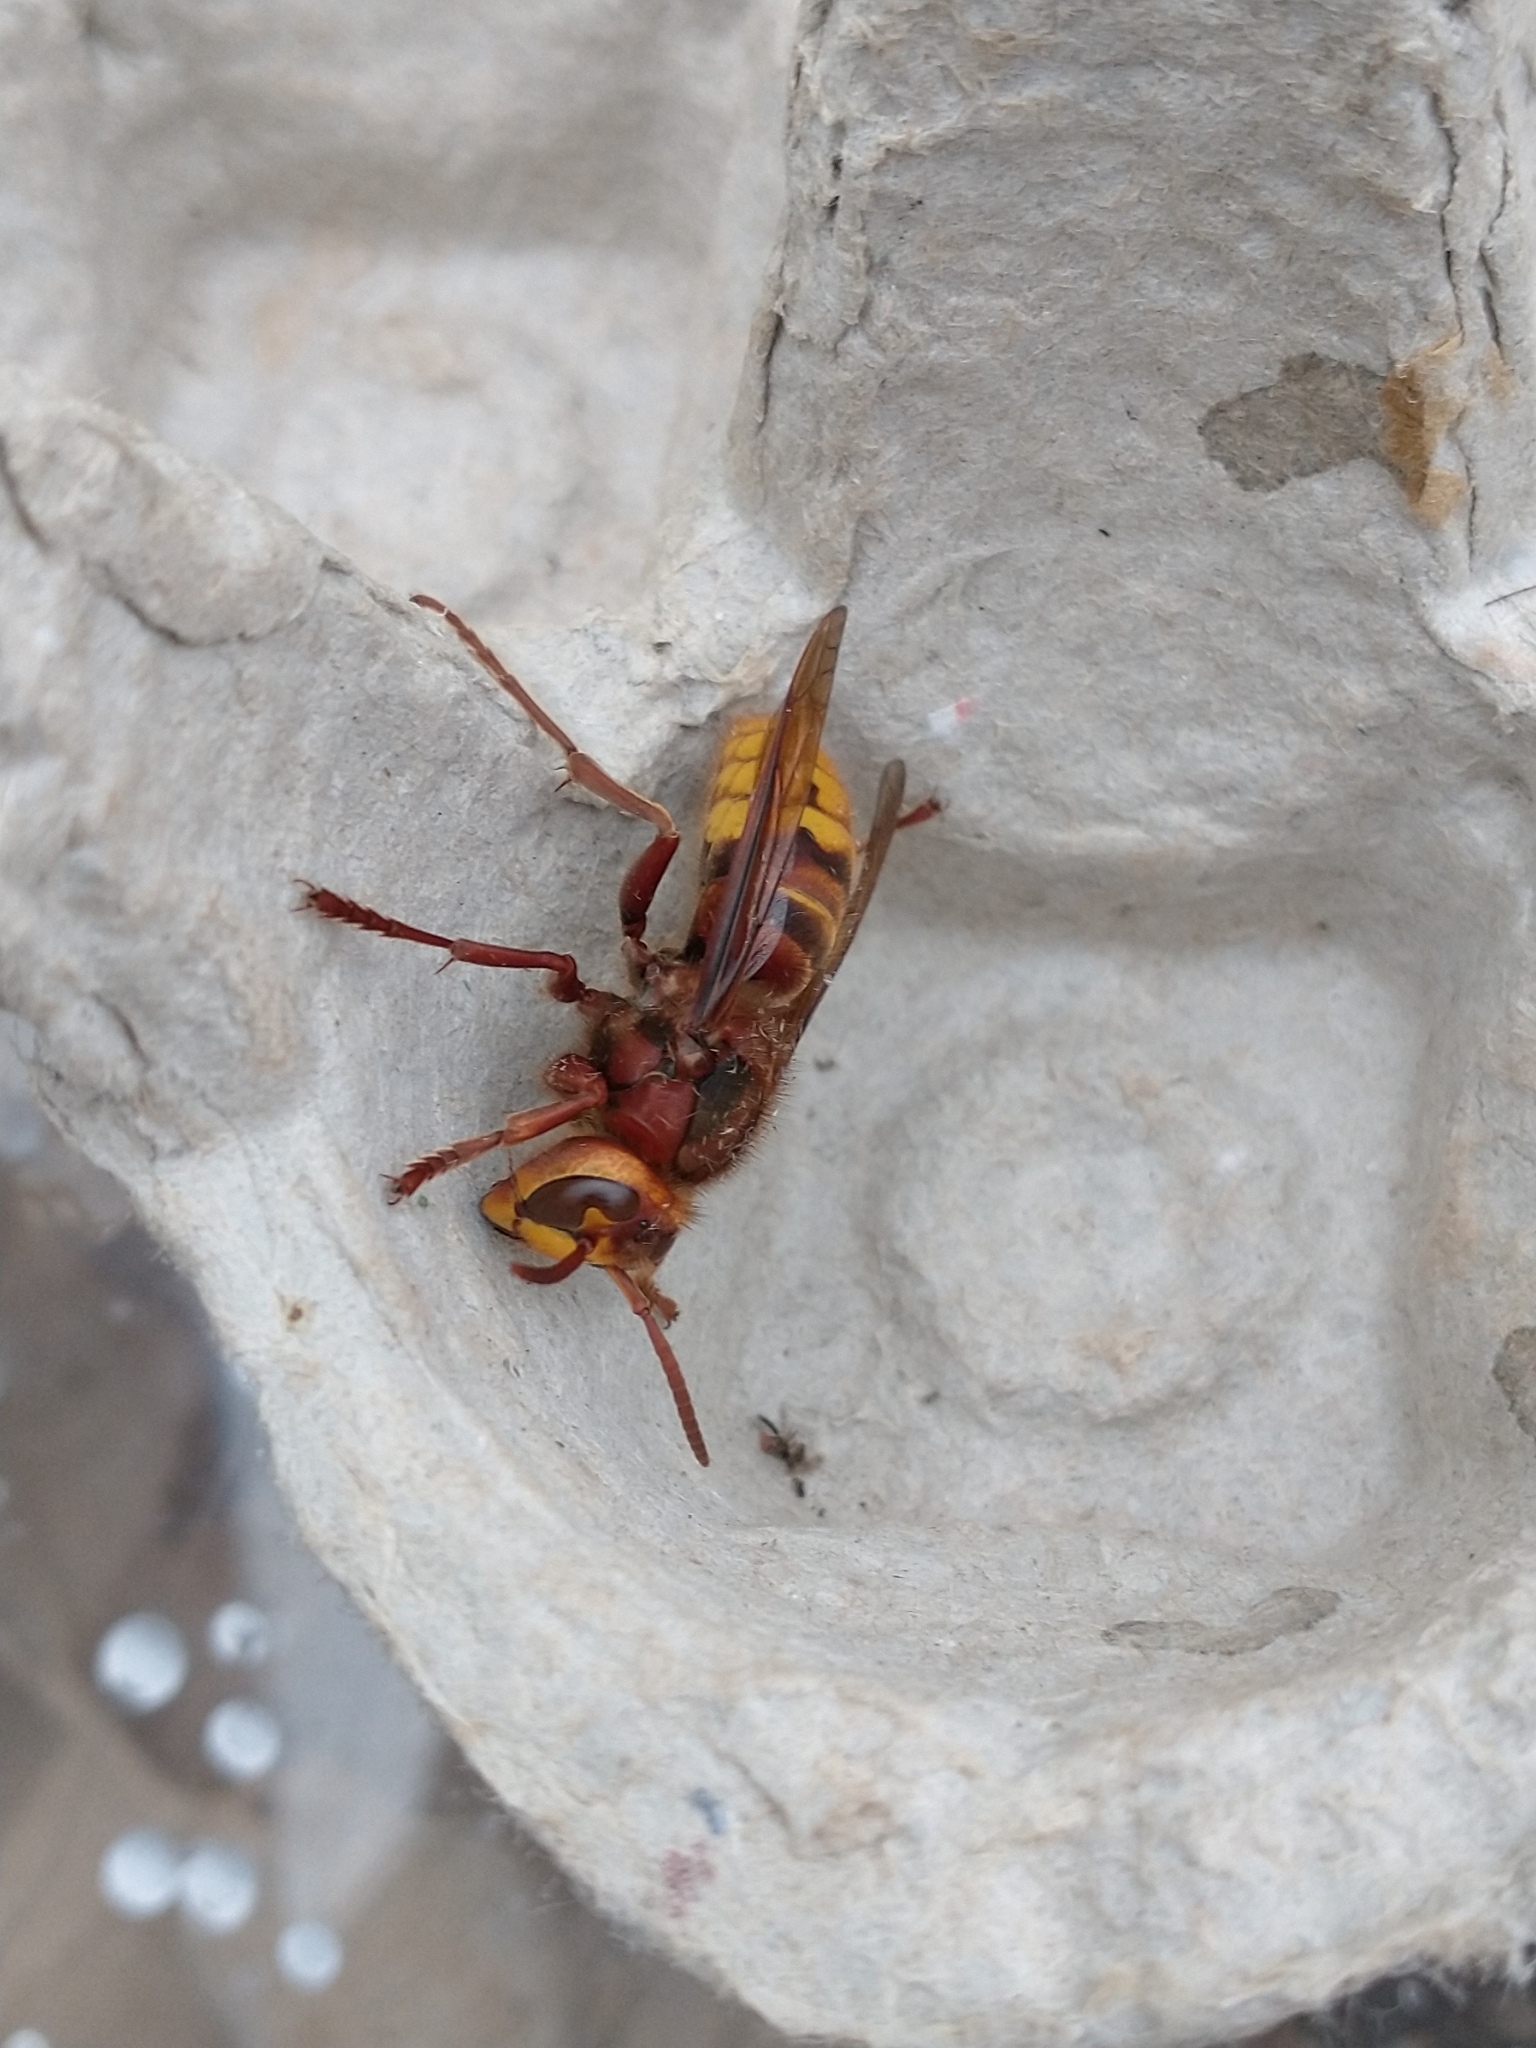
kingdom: Animalia
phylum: Arthropoda
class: Insecta
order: Hymenoptera
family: Vespidae
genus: Vespa
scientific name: Vespa crabro
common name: Hornet
